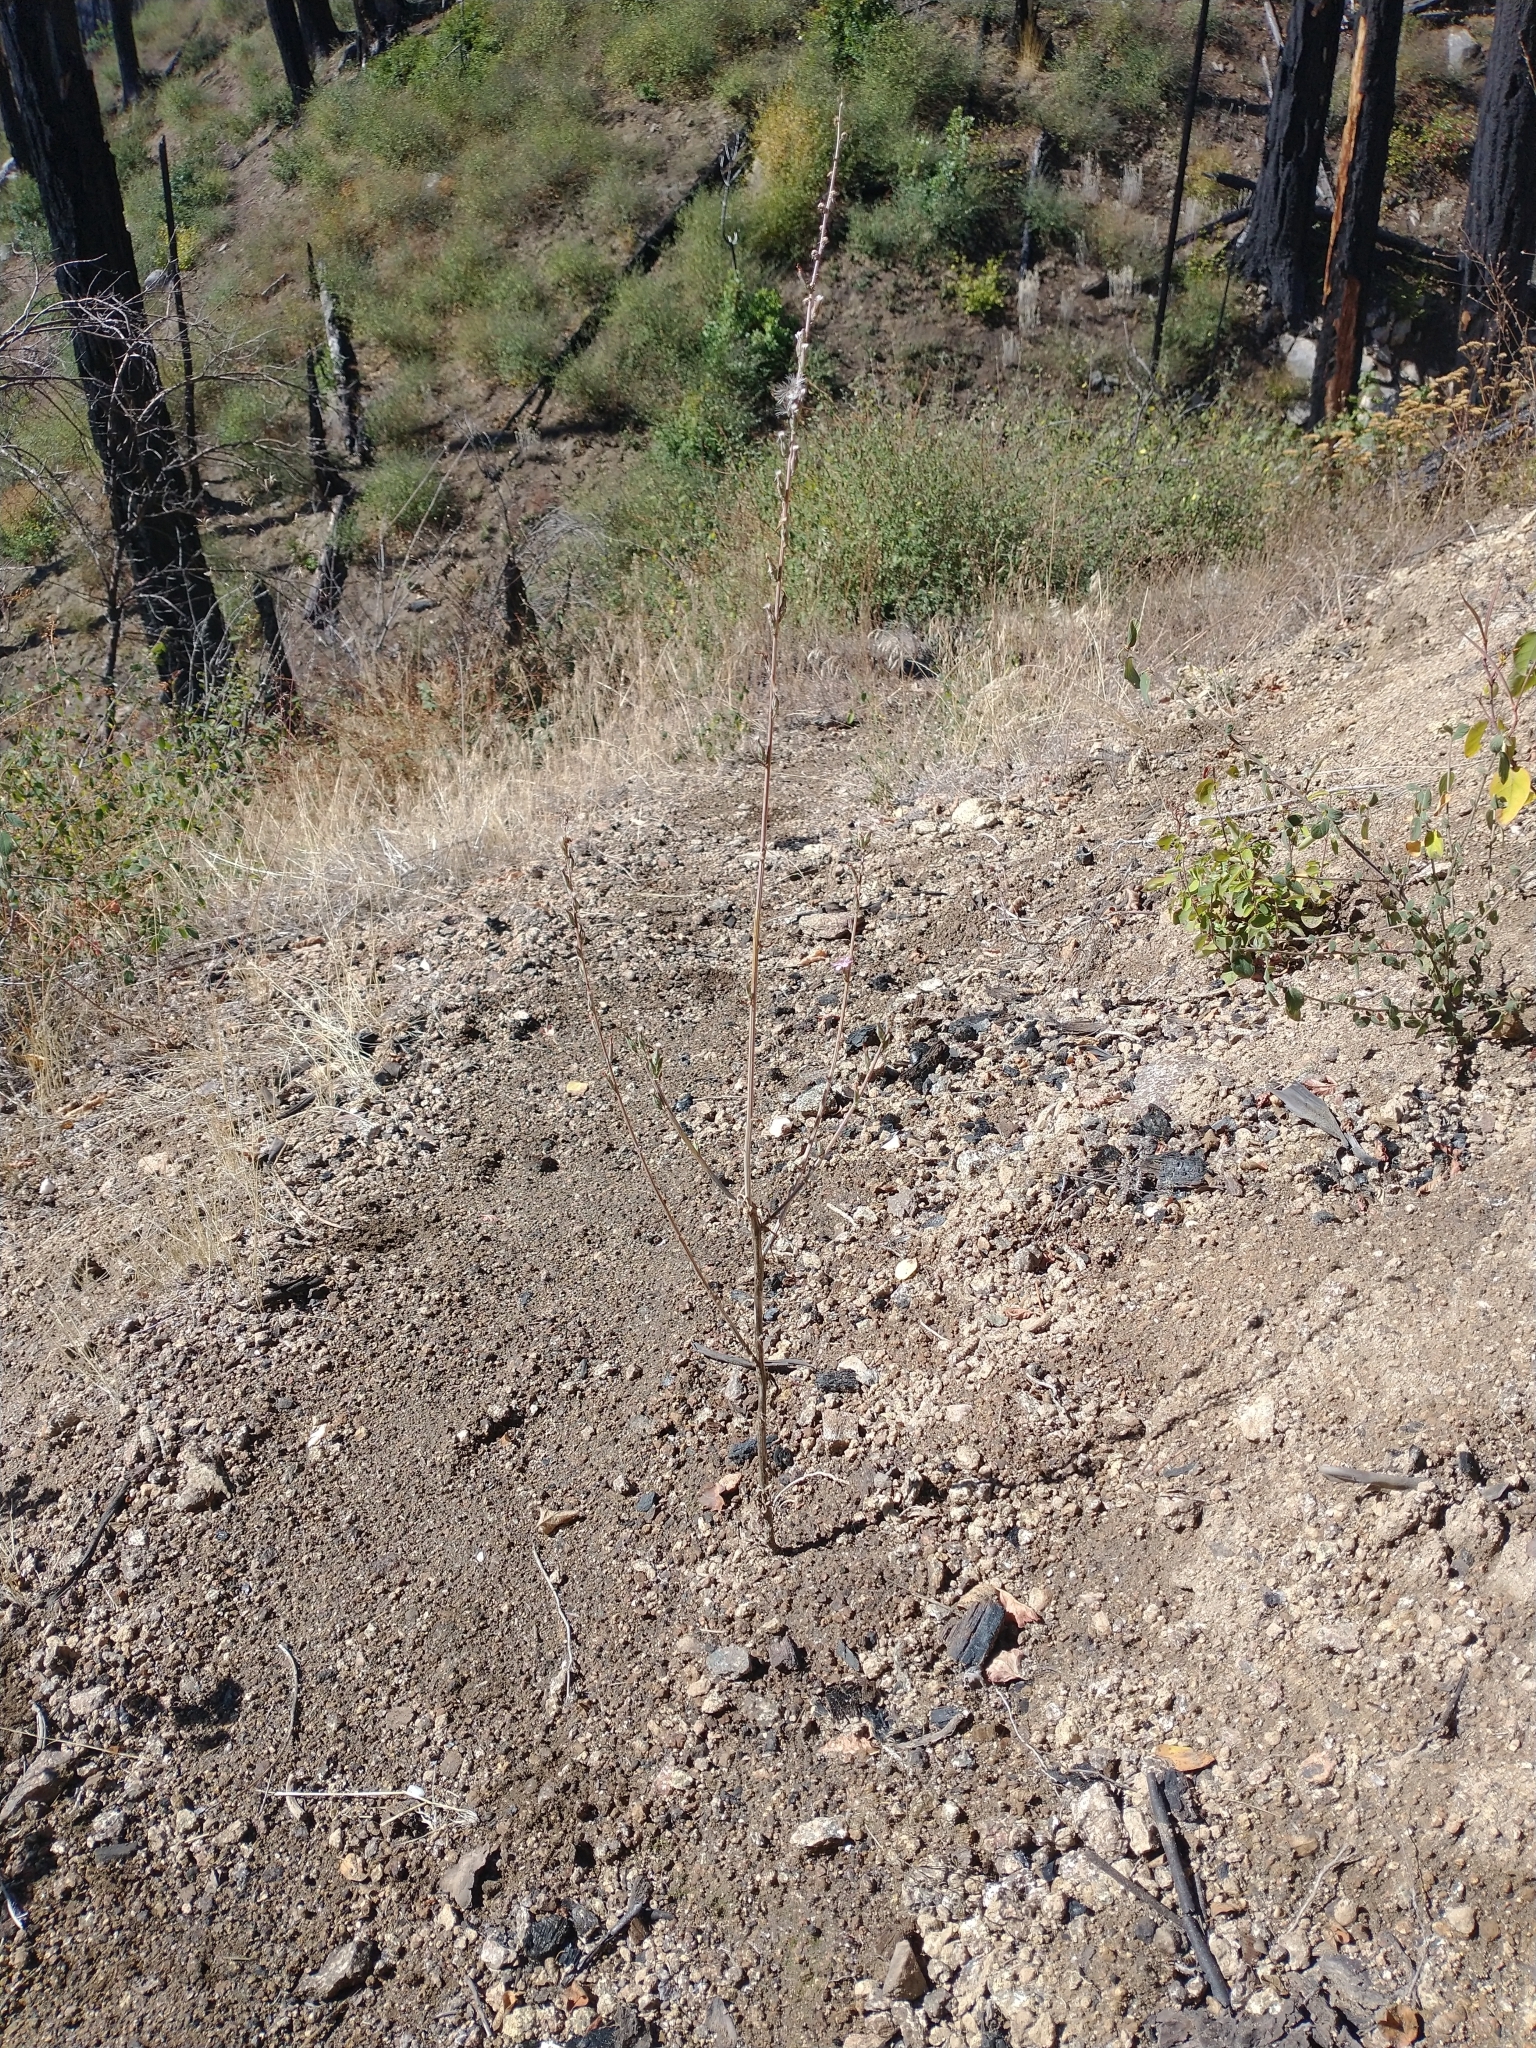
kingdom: Plantae
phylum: Tracheophyta
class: Magnoliopsida
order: Asterales
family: Asteraceae
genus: Stephanomeria
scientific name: Stephanomeria virgata
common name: Virgate wirelettuce
